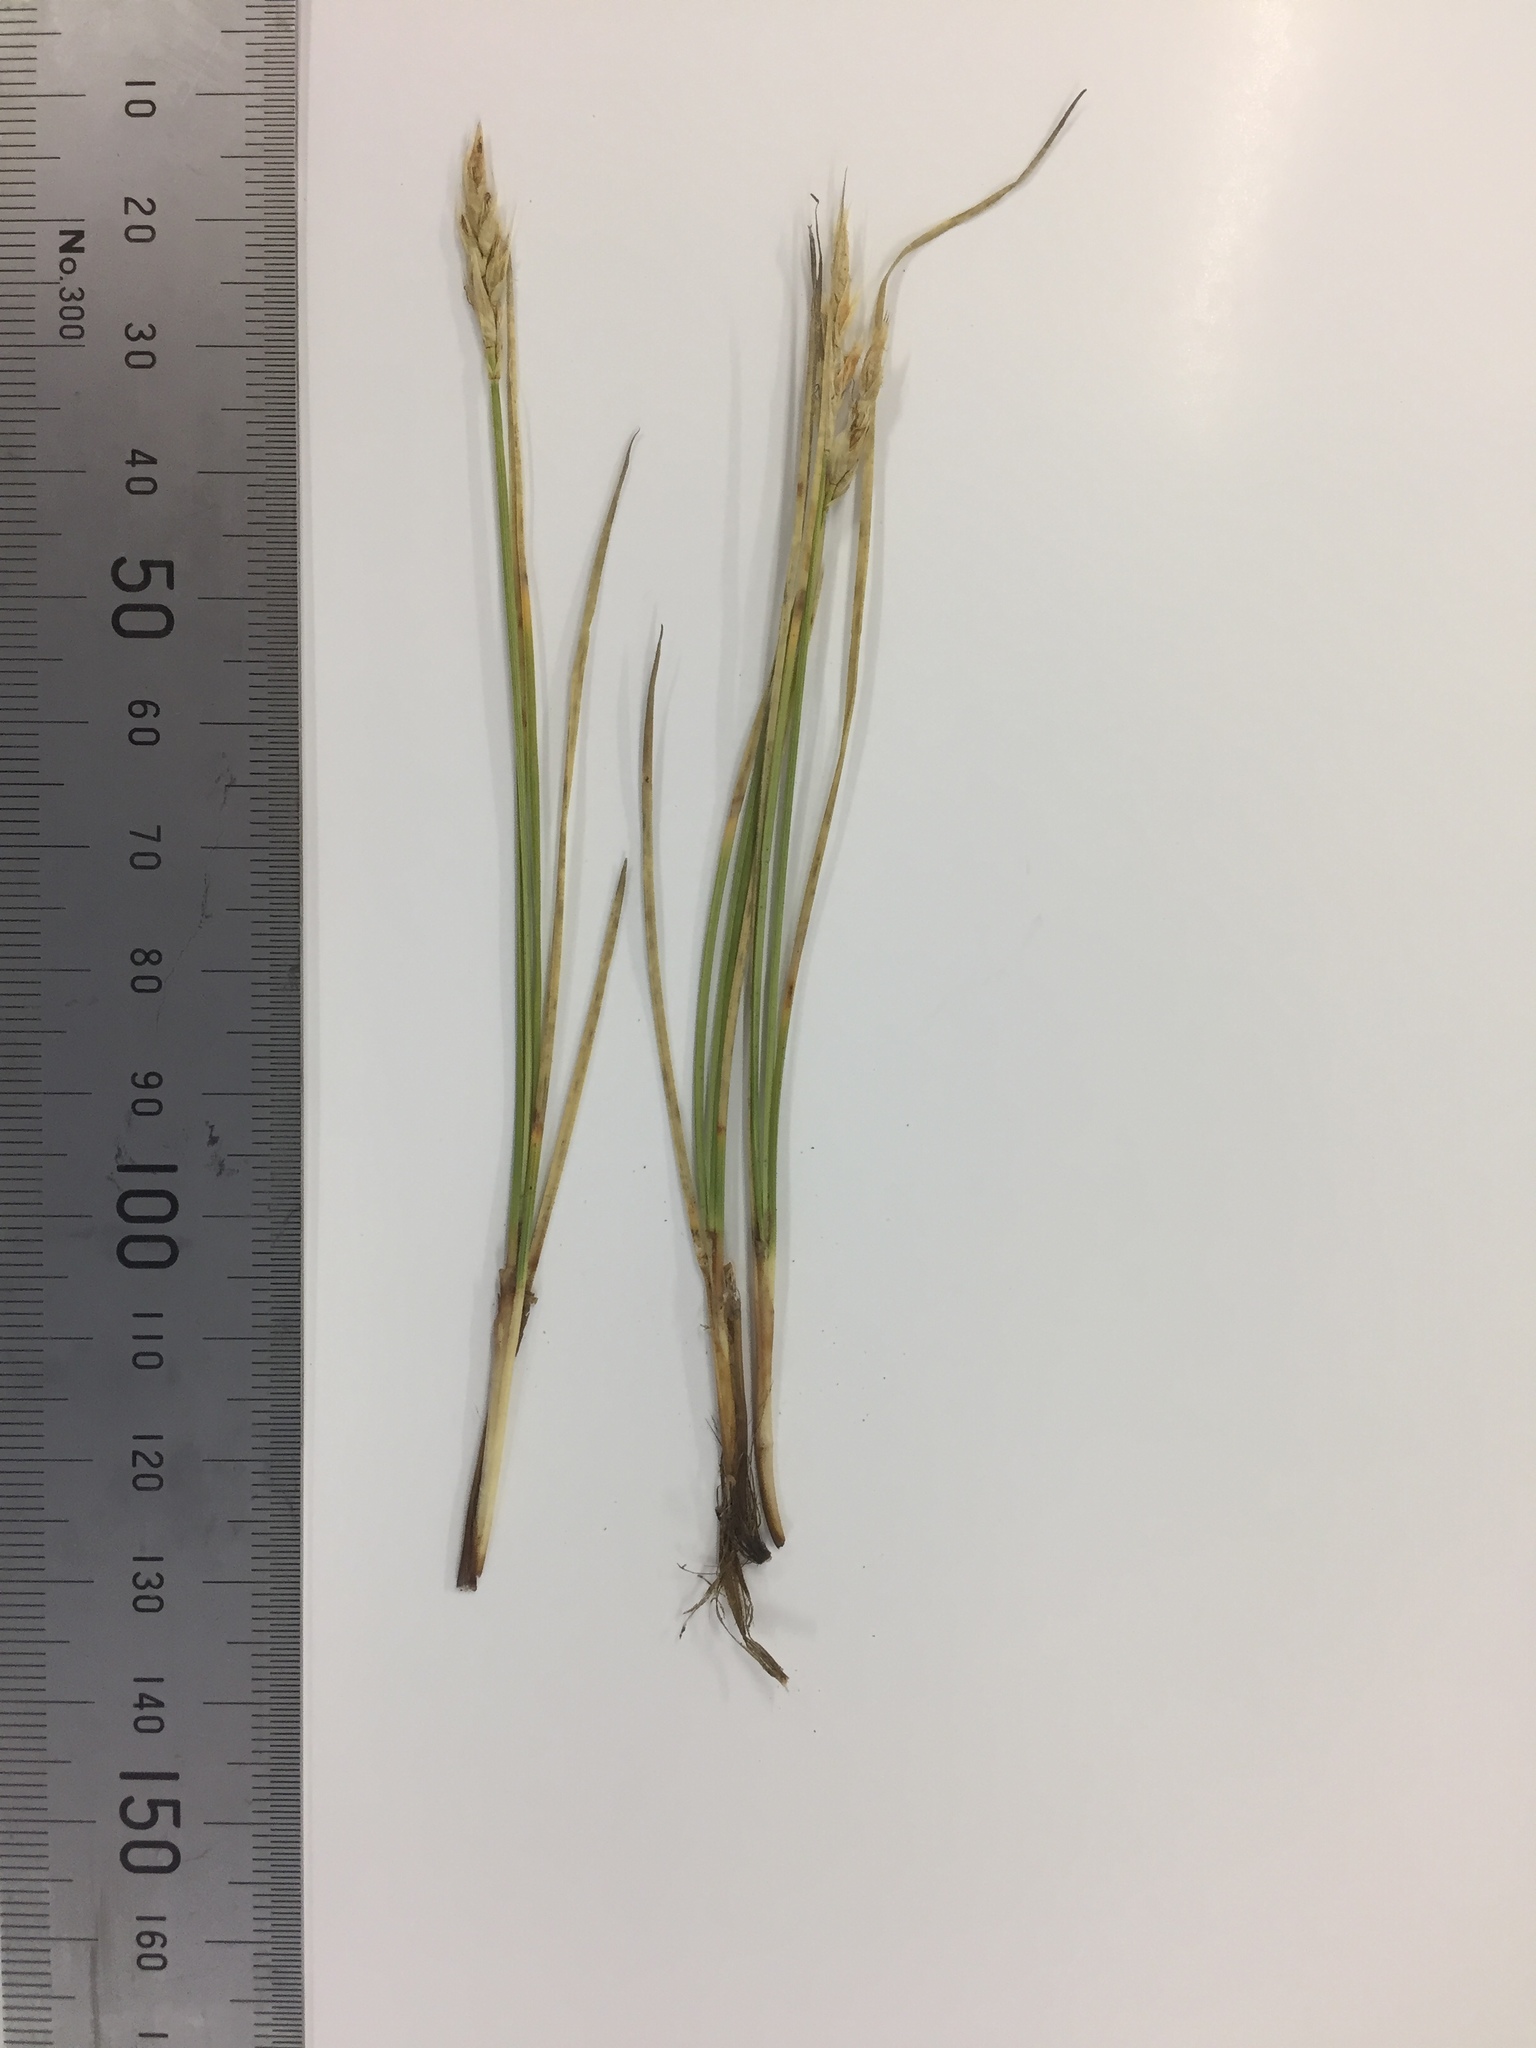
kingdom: Plantae
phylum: Tracheophyta
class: Liliopsida
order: Poales
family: Cyperaceae
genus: Carex
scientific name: Carex muelleri
